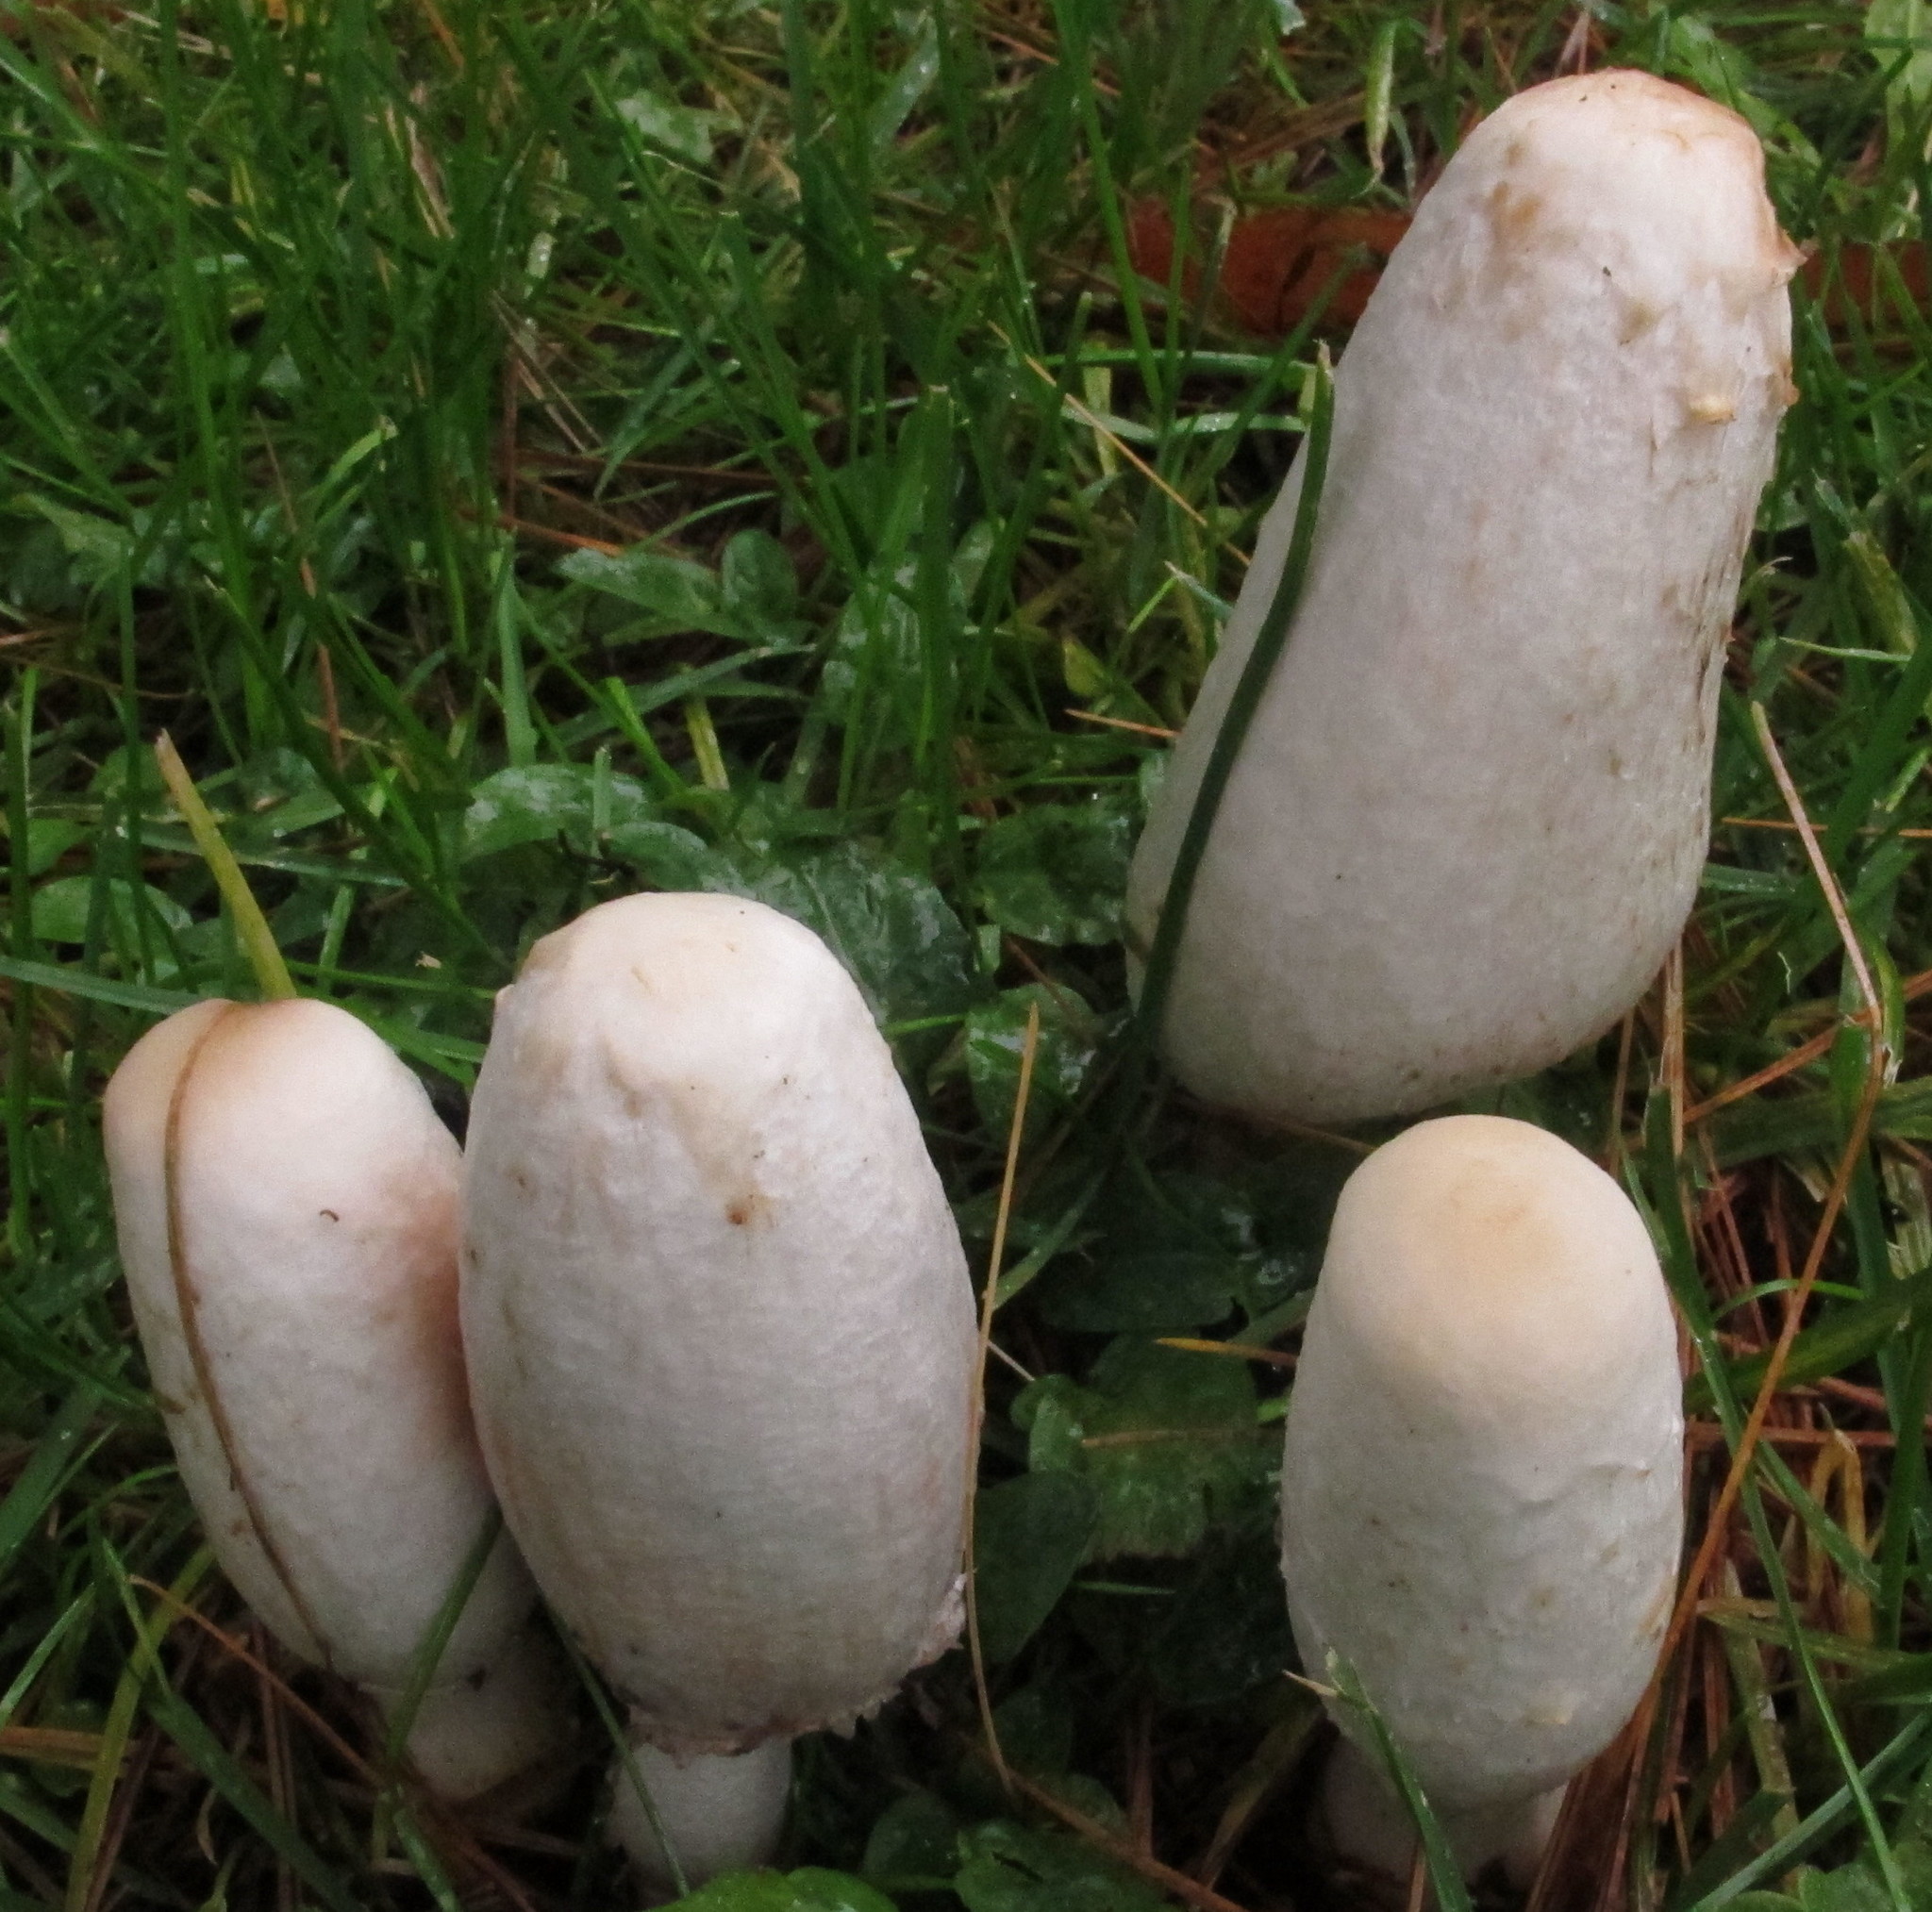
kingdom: Fungi
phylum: Basidiomycota
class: Agaricomycetes
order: Agaricales
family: Agaricaceae
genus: Coprinus
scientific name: Coprinus comatus
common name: Lawyer's wig
